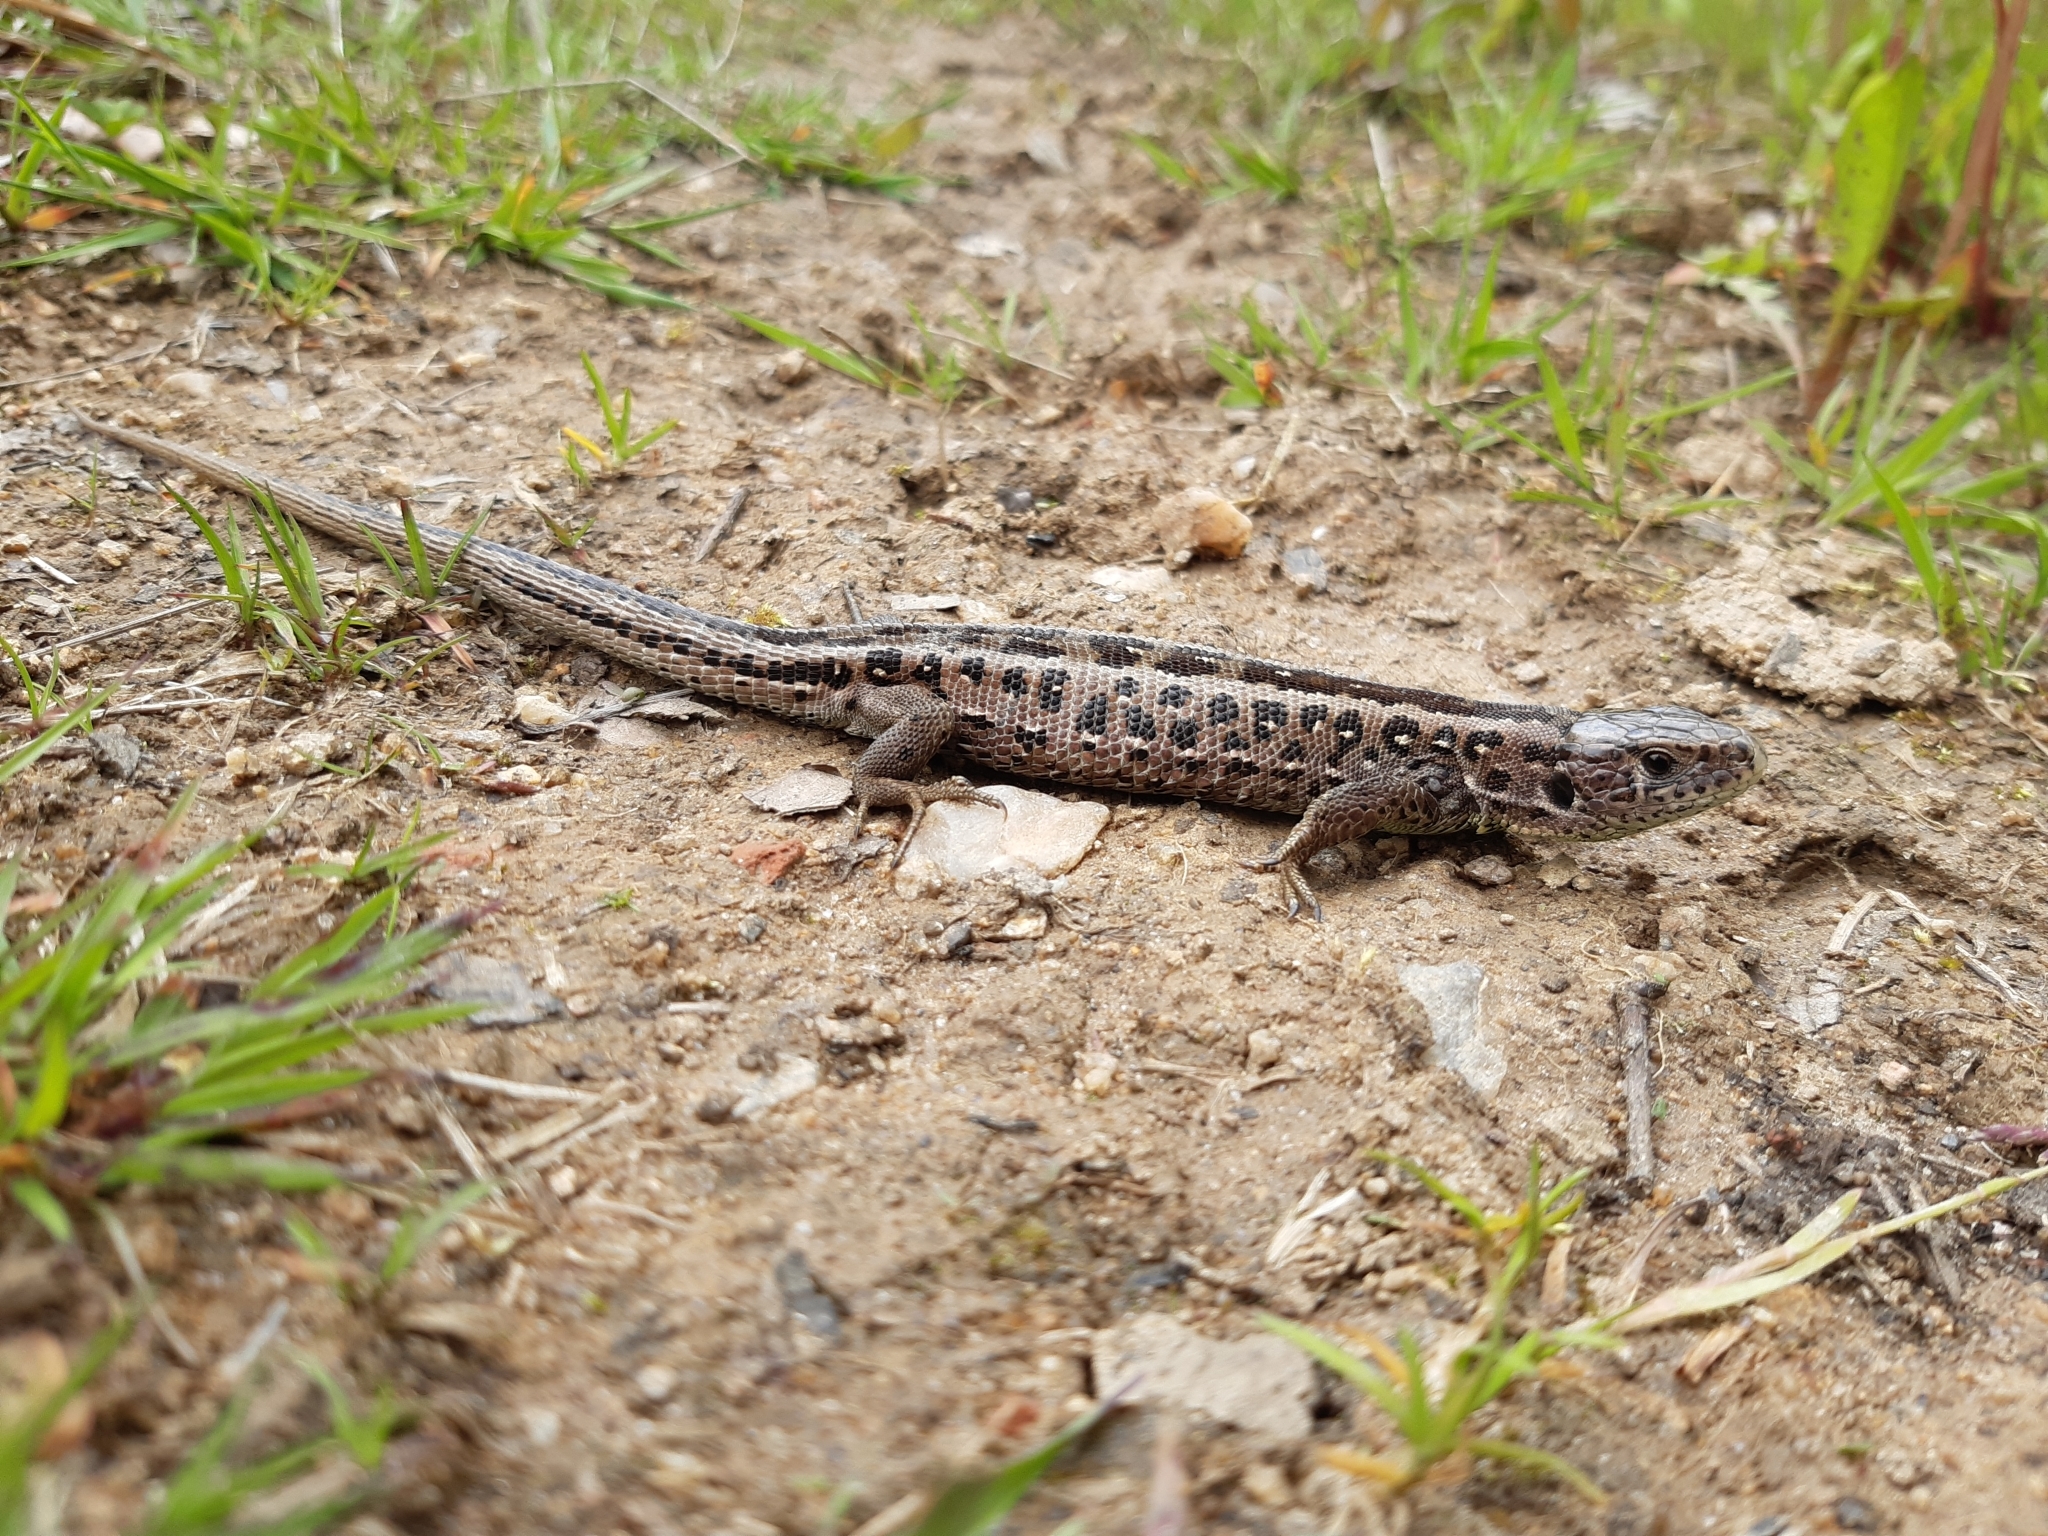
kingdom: Animalia
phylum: Chordata
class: Squamata
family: Lacertidae
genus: Lacerta
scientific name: Lacerta agilis
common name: Sand lizard
